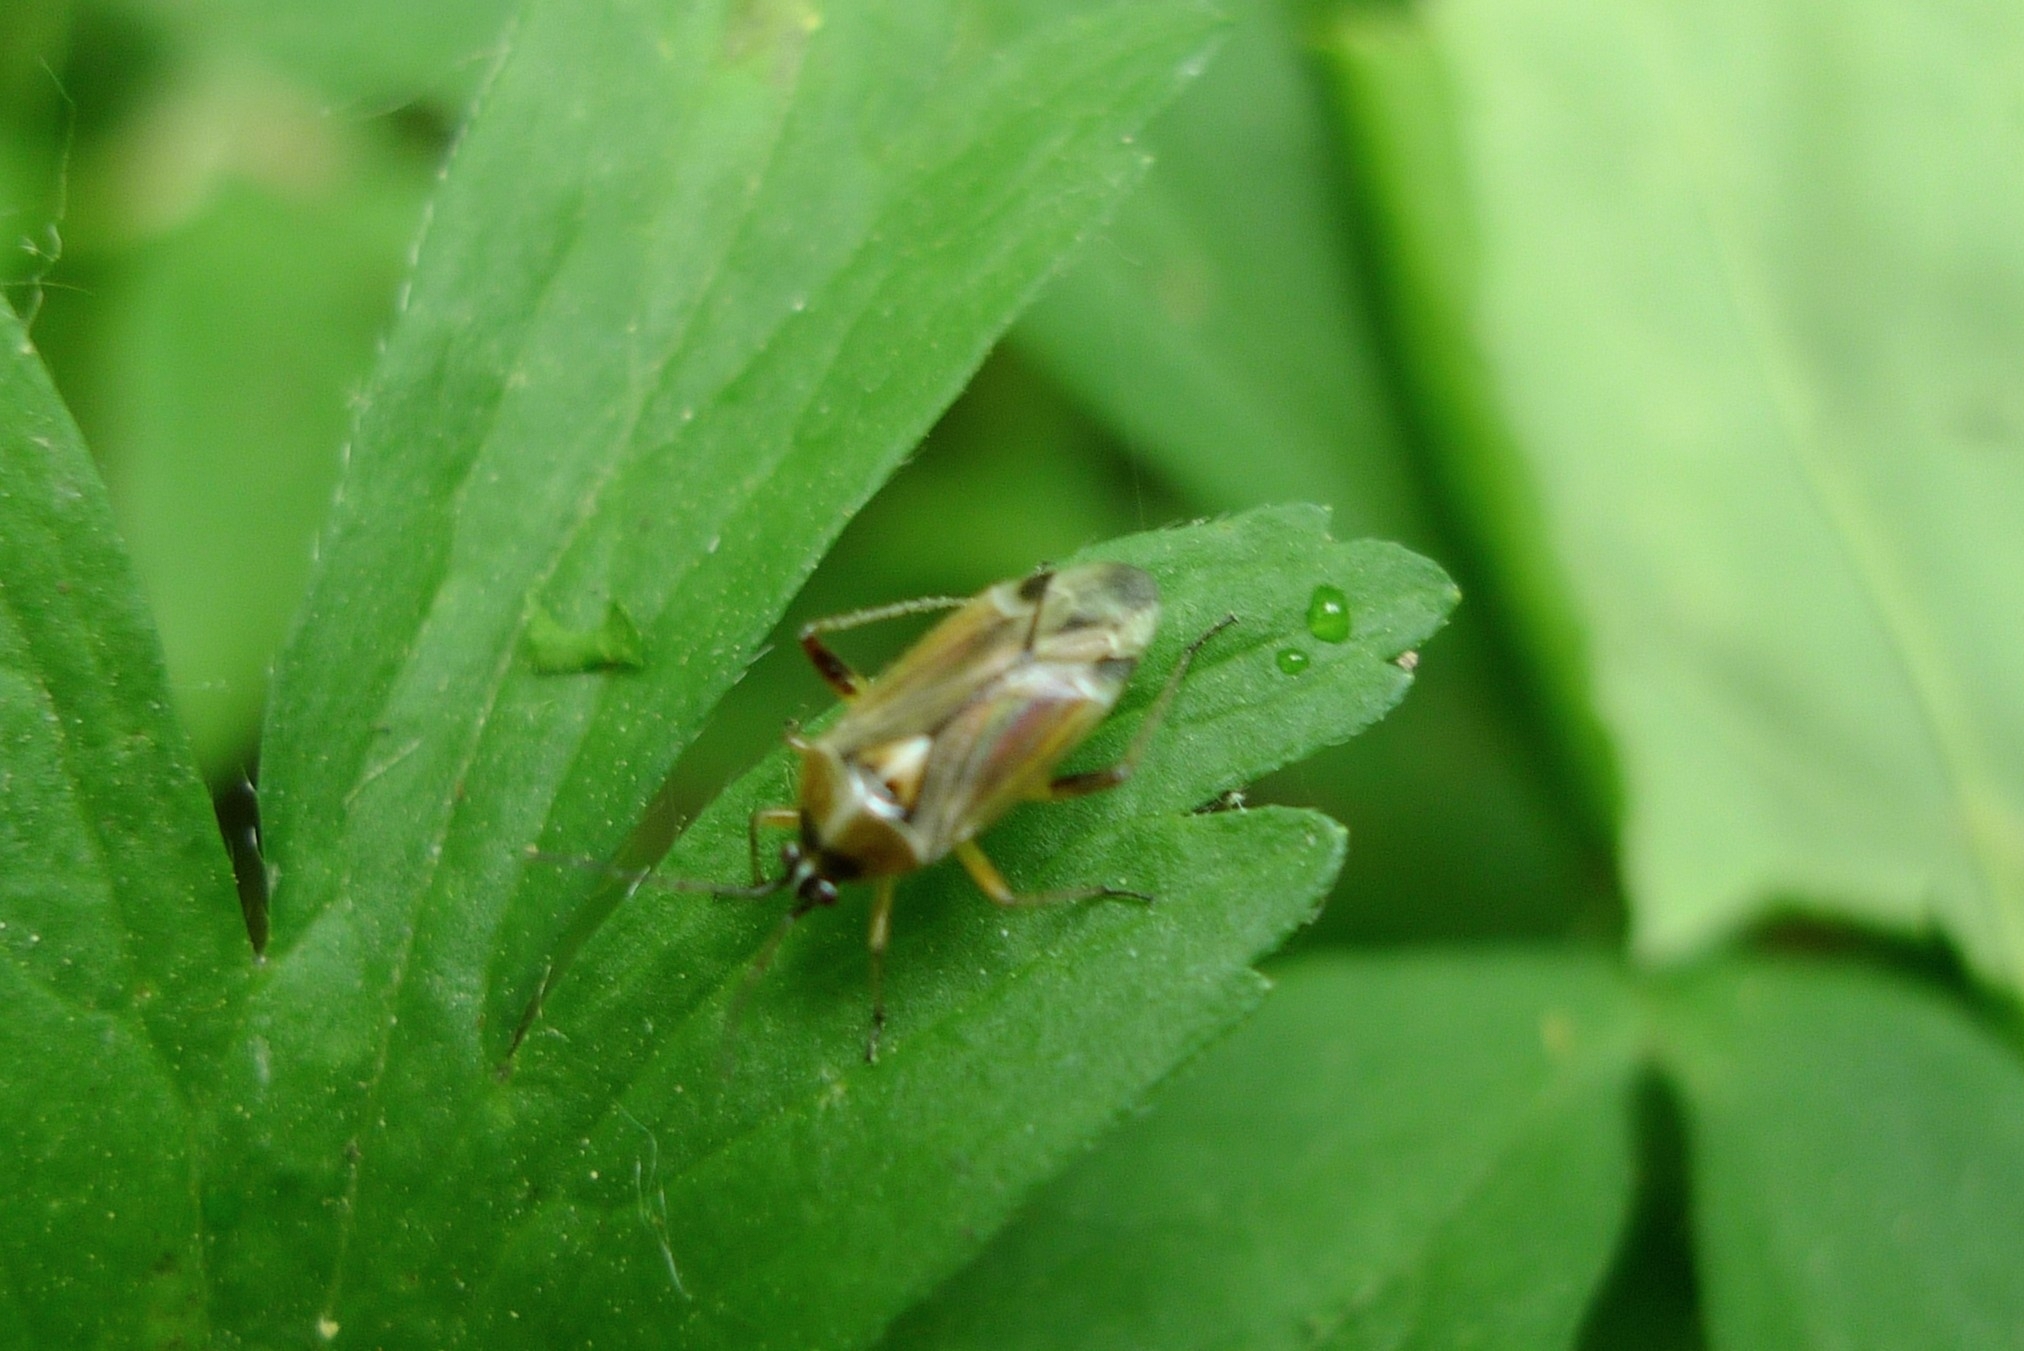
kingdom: Animalia
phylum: Arthropoda
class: Insecta
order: Hemiptera
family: Miridae
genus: Harpocera
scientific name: Harpocera thoracica
